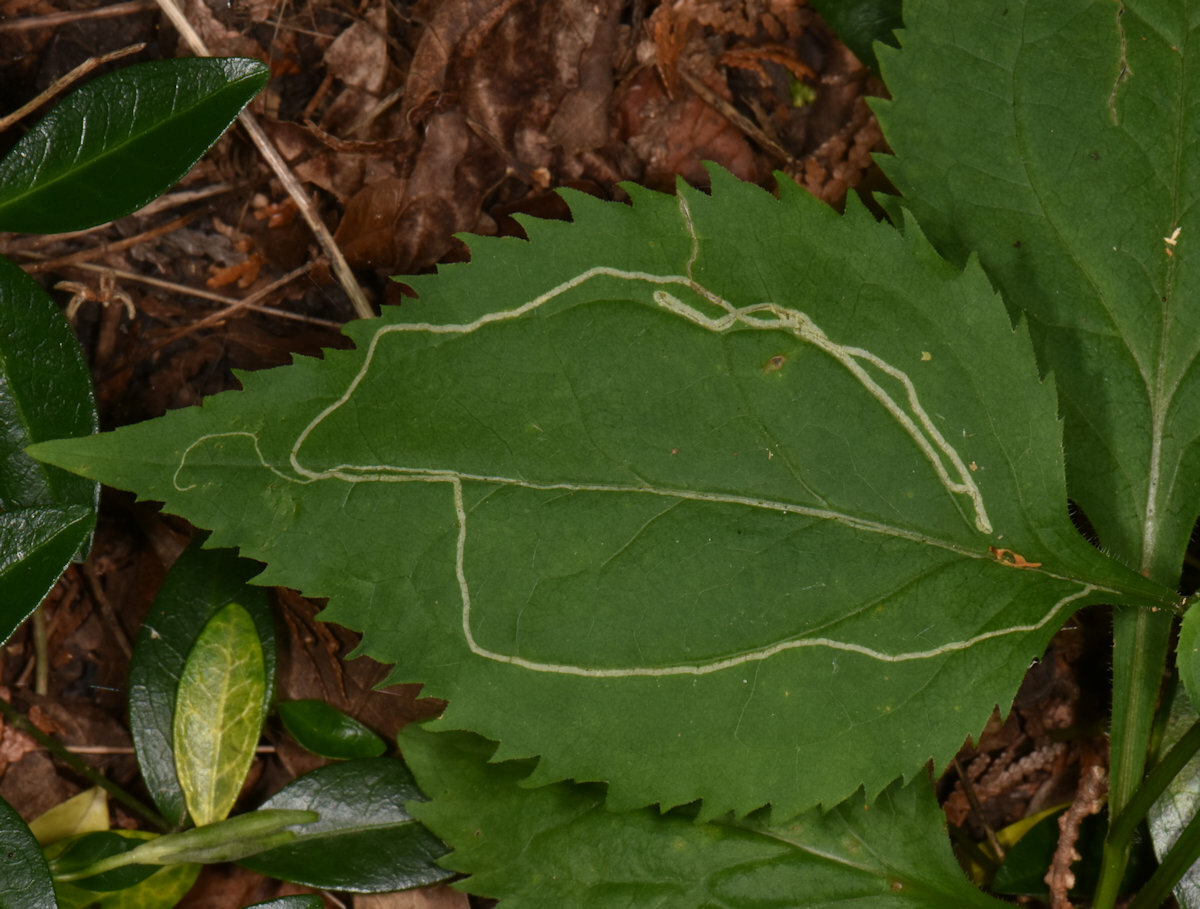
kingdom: Animalia
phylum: Arthropoda
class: Insecta
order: Diptera
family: Agromyzidae
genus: Ophiomyia
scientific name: Ophiomyia maura
